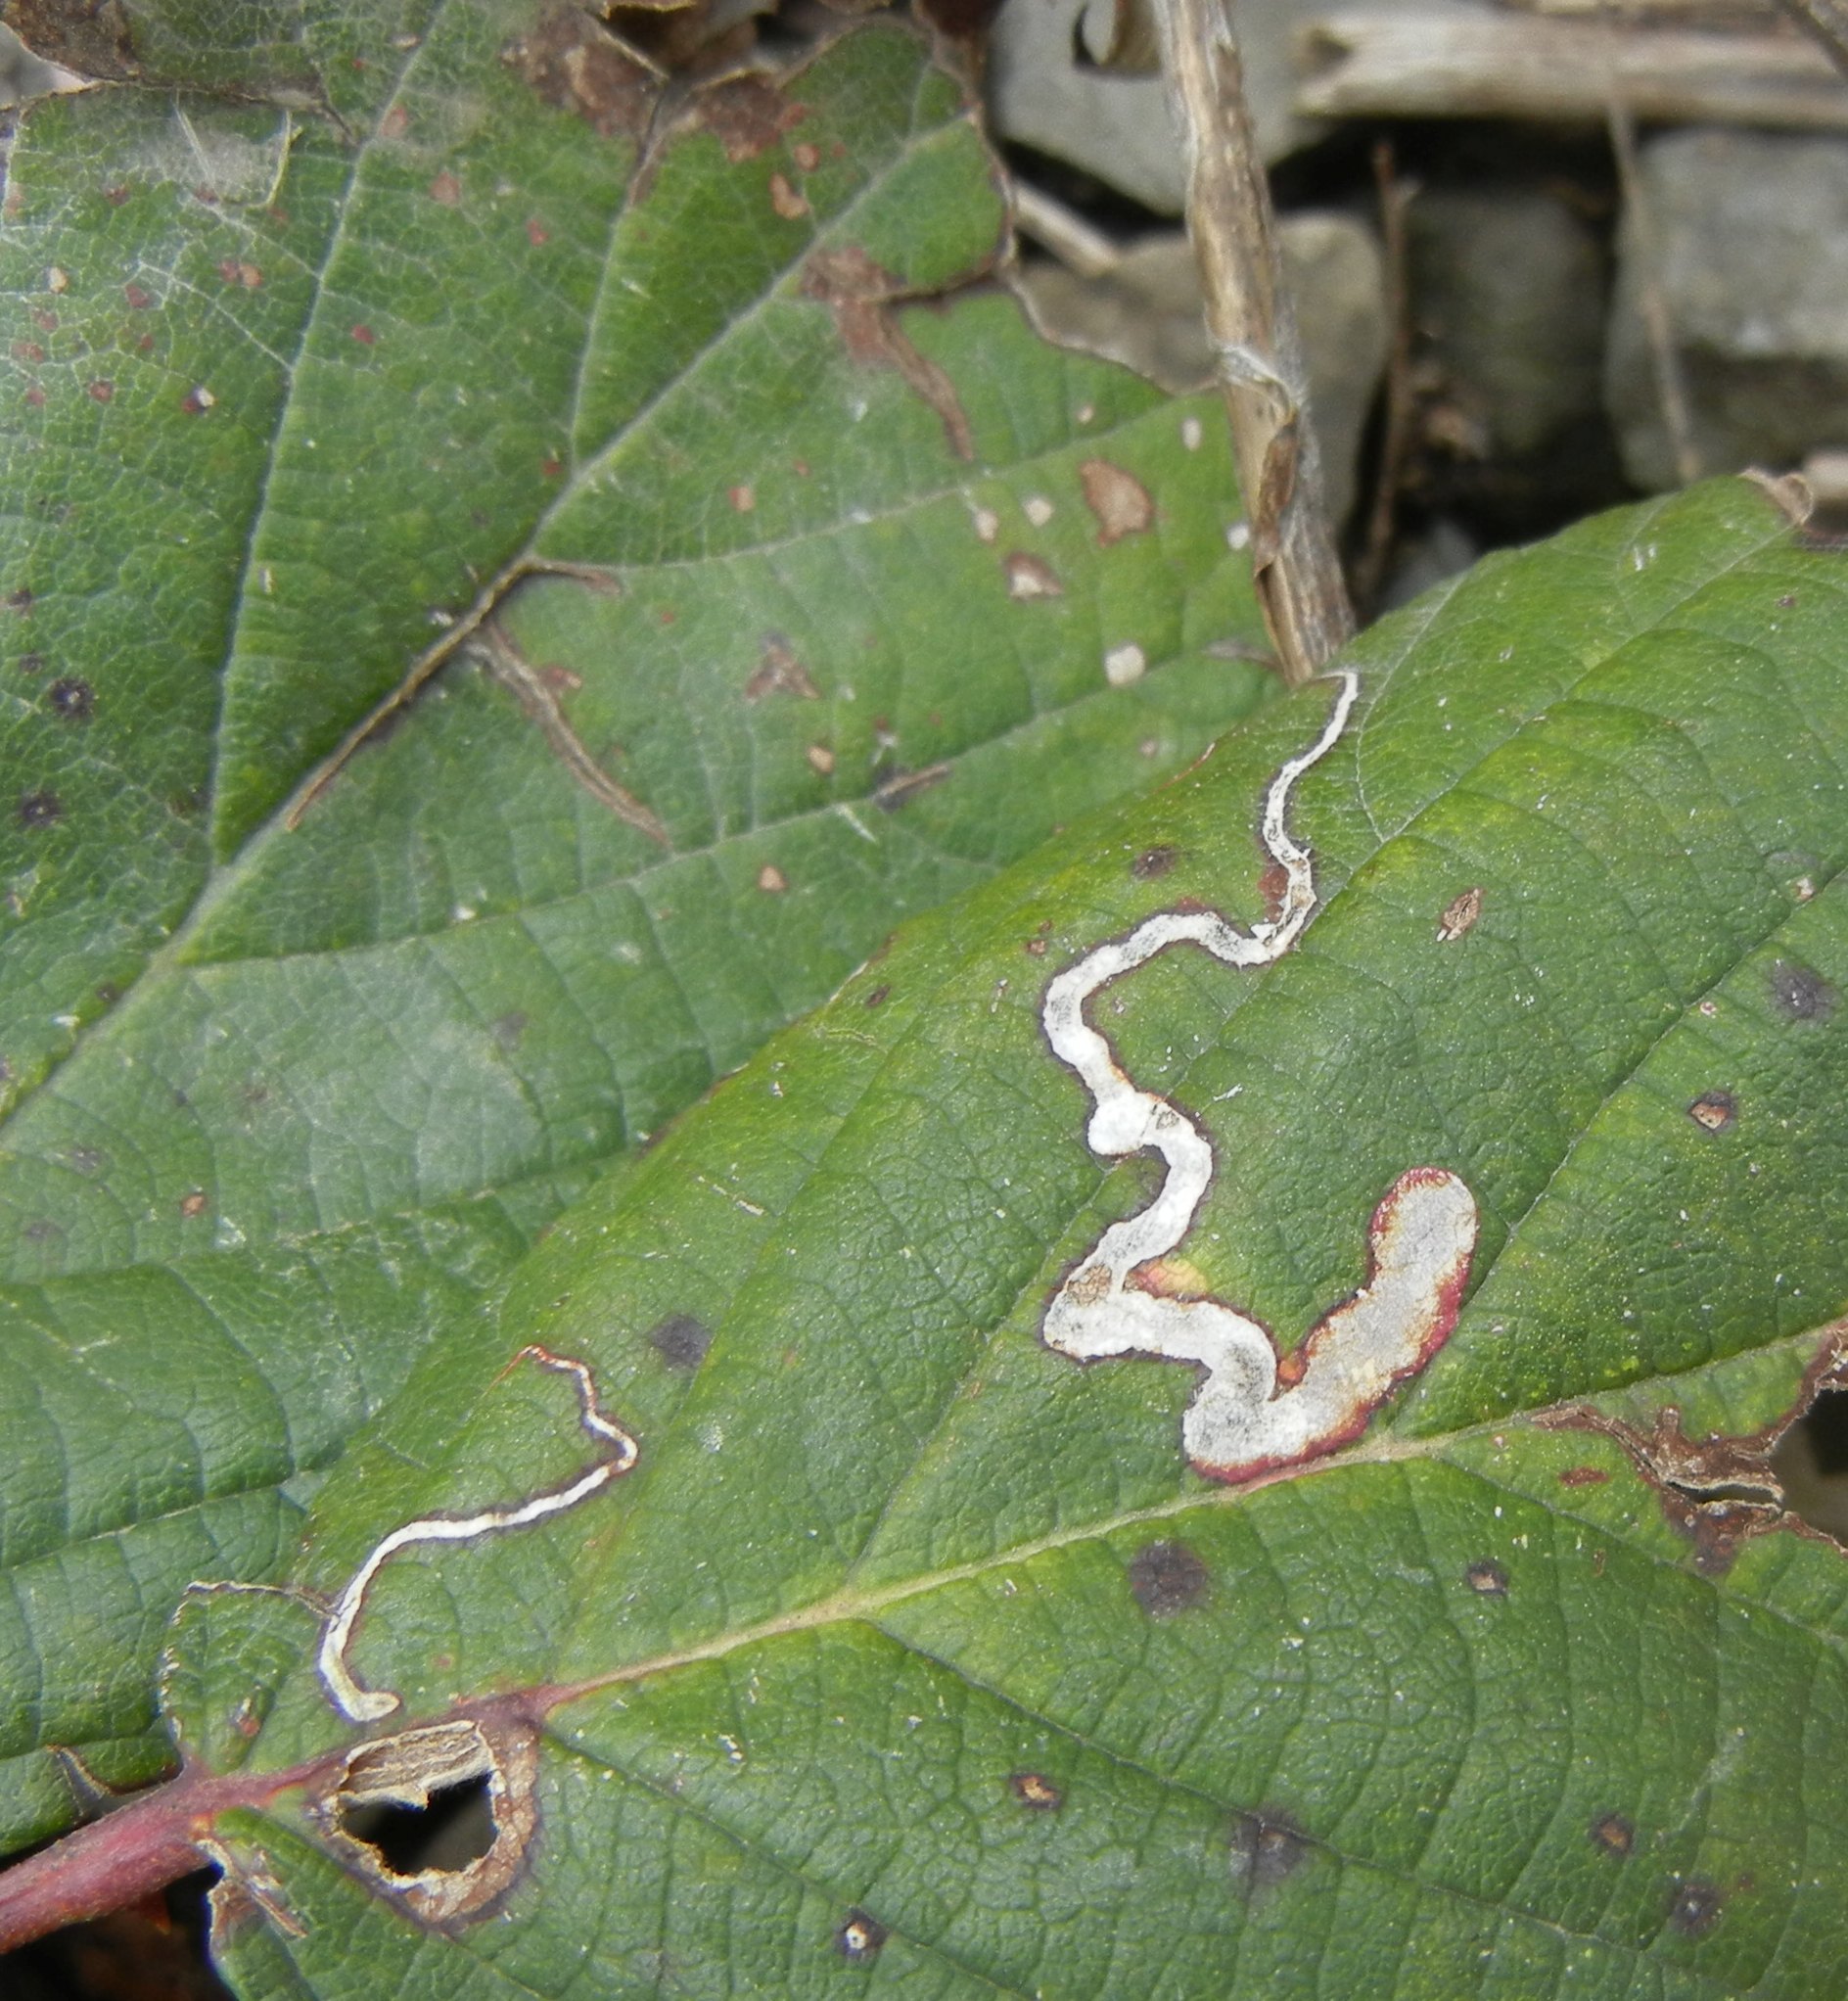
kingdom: Animalia
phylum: Arthropoda
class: Insecta
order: Lepidoptera
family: Nepticulidae
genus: Stigmella
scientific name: Stigmella aurella
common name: Golden pigmy
